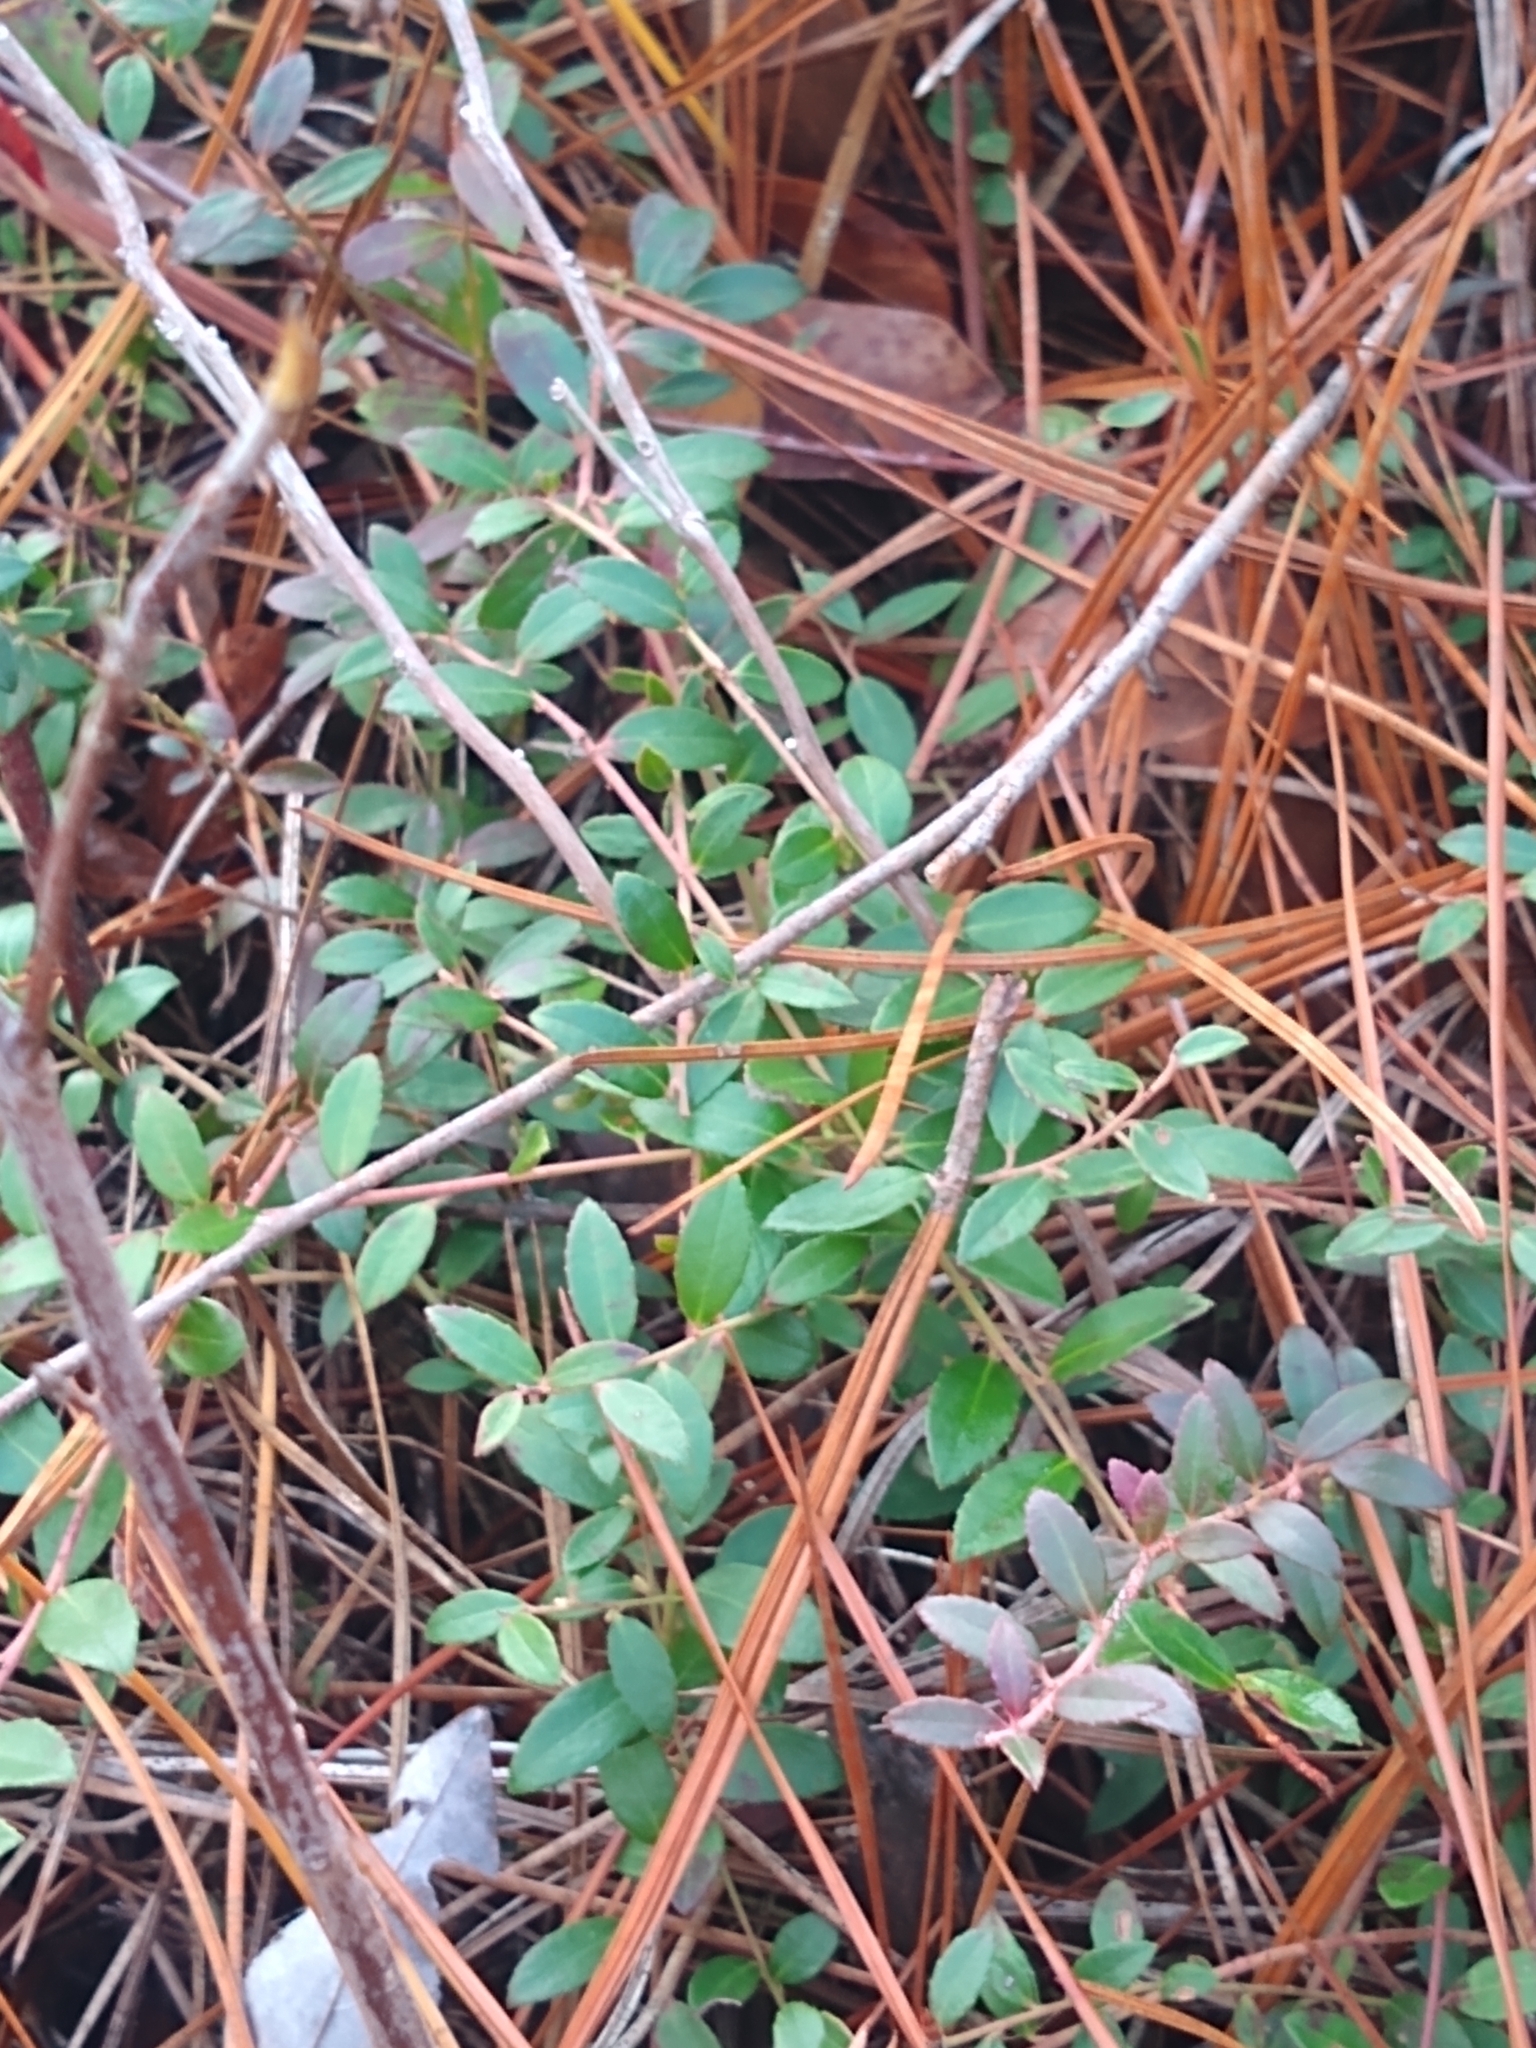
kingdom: Plantae
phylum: Tracheophyta
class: Magnoliopsida
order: Ericales
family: Ericaceae
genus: Vaccinium
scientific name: Vaccinium crassifolium
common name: Creeping blueberry
